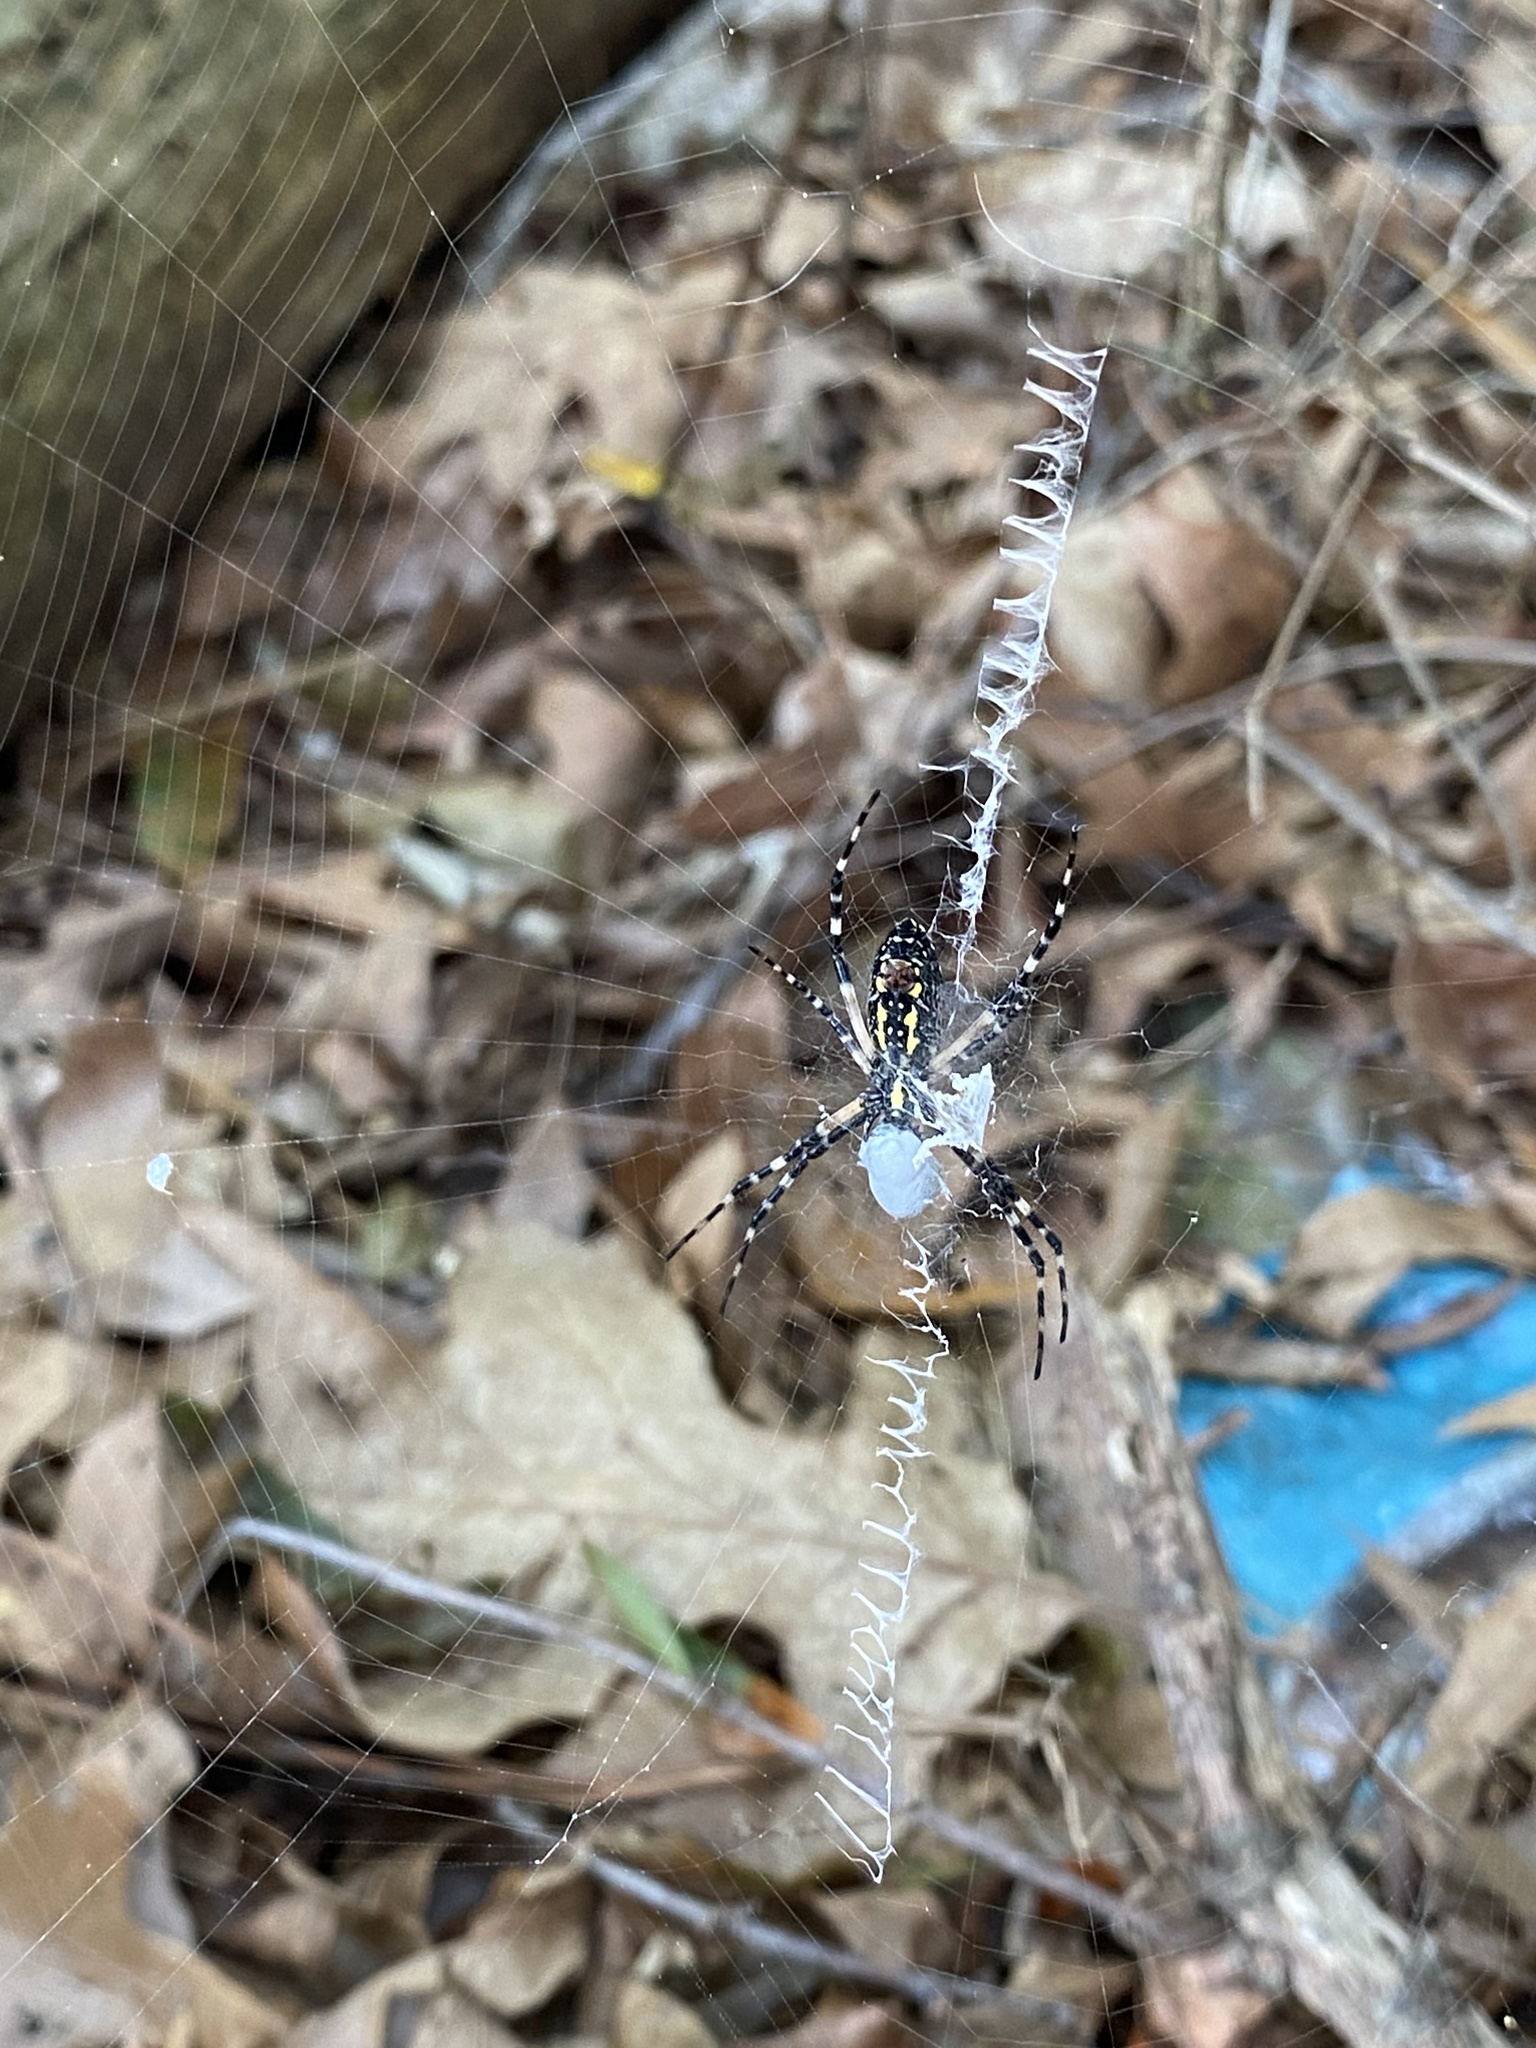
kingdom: Animalia
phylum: Arthropoda
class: Arachnida
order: Araneae
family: Araneidae
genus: Argiope
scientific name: Argiope aurantia
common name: Orb weavers
